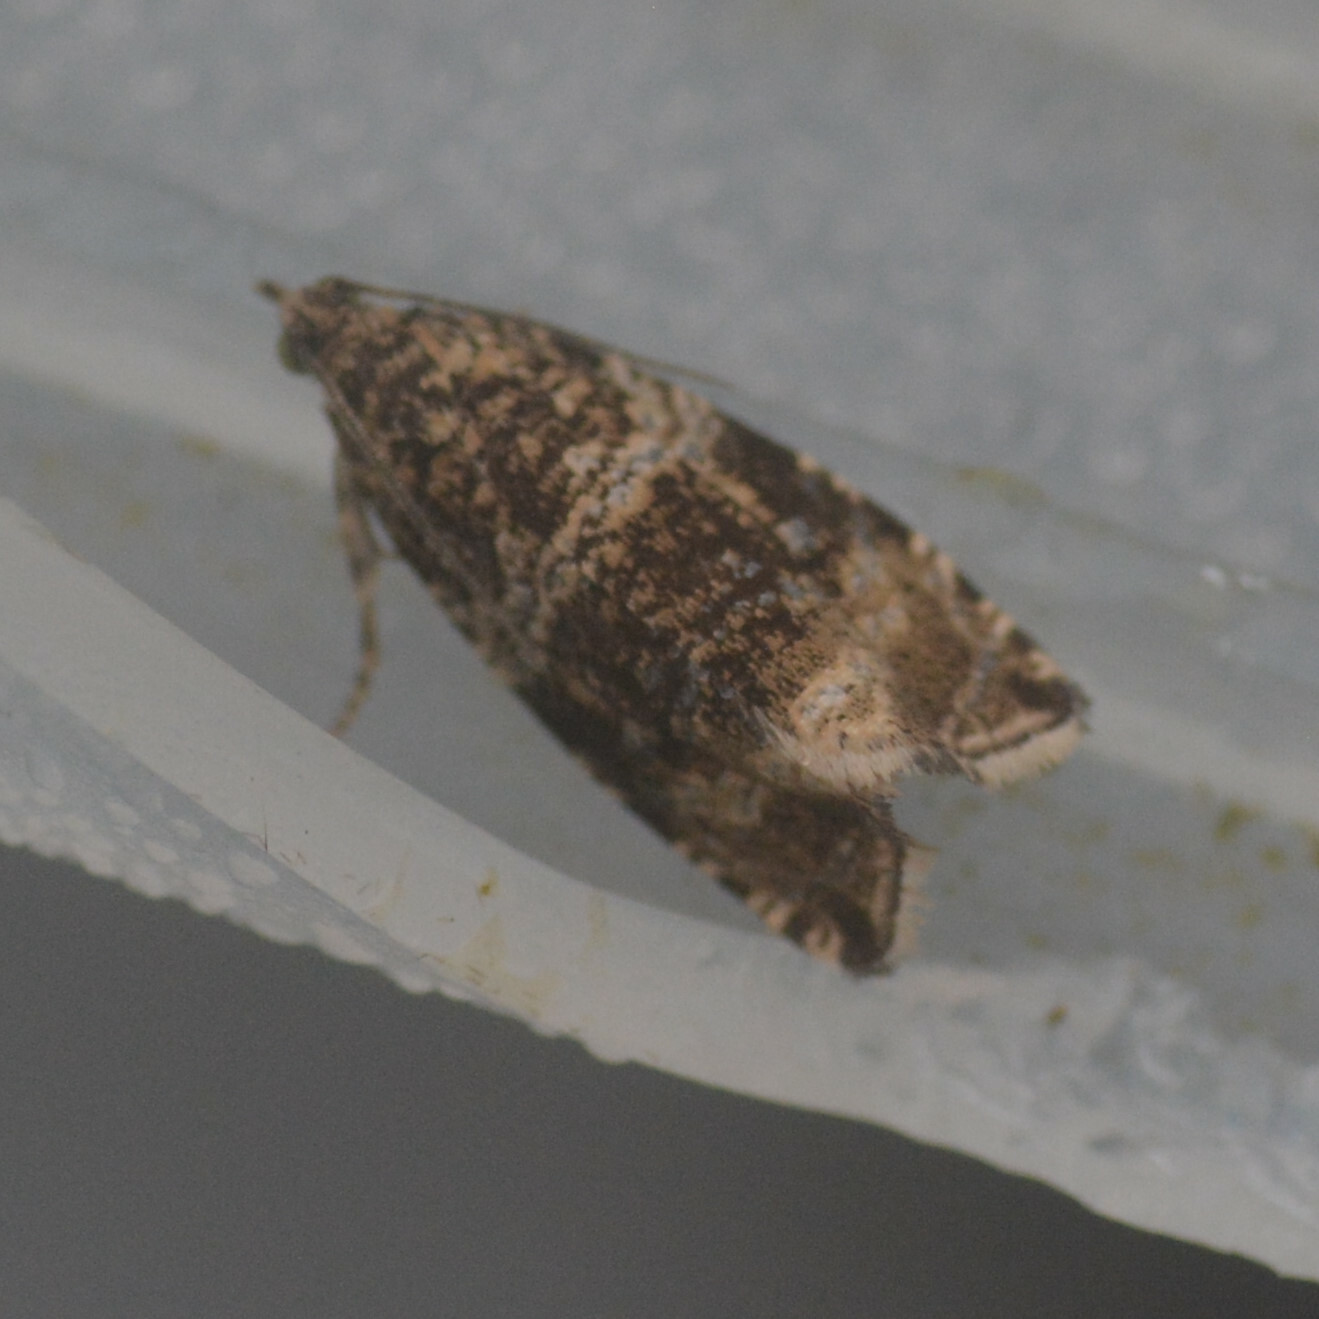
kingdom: Animalia
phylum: Arthropoda
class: Insecta
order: Lepidoptera
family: Tortricidae
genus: Syricoris
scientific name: Syricoris lacunana
